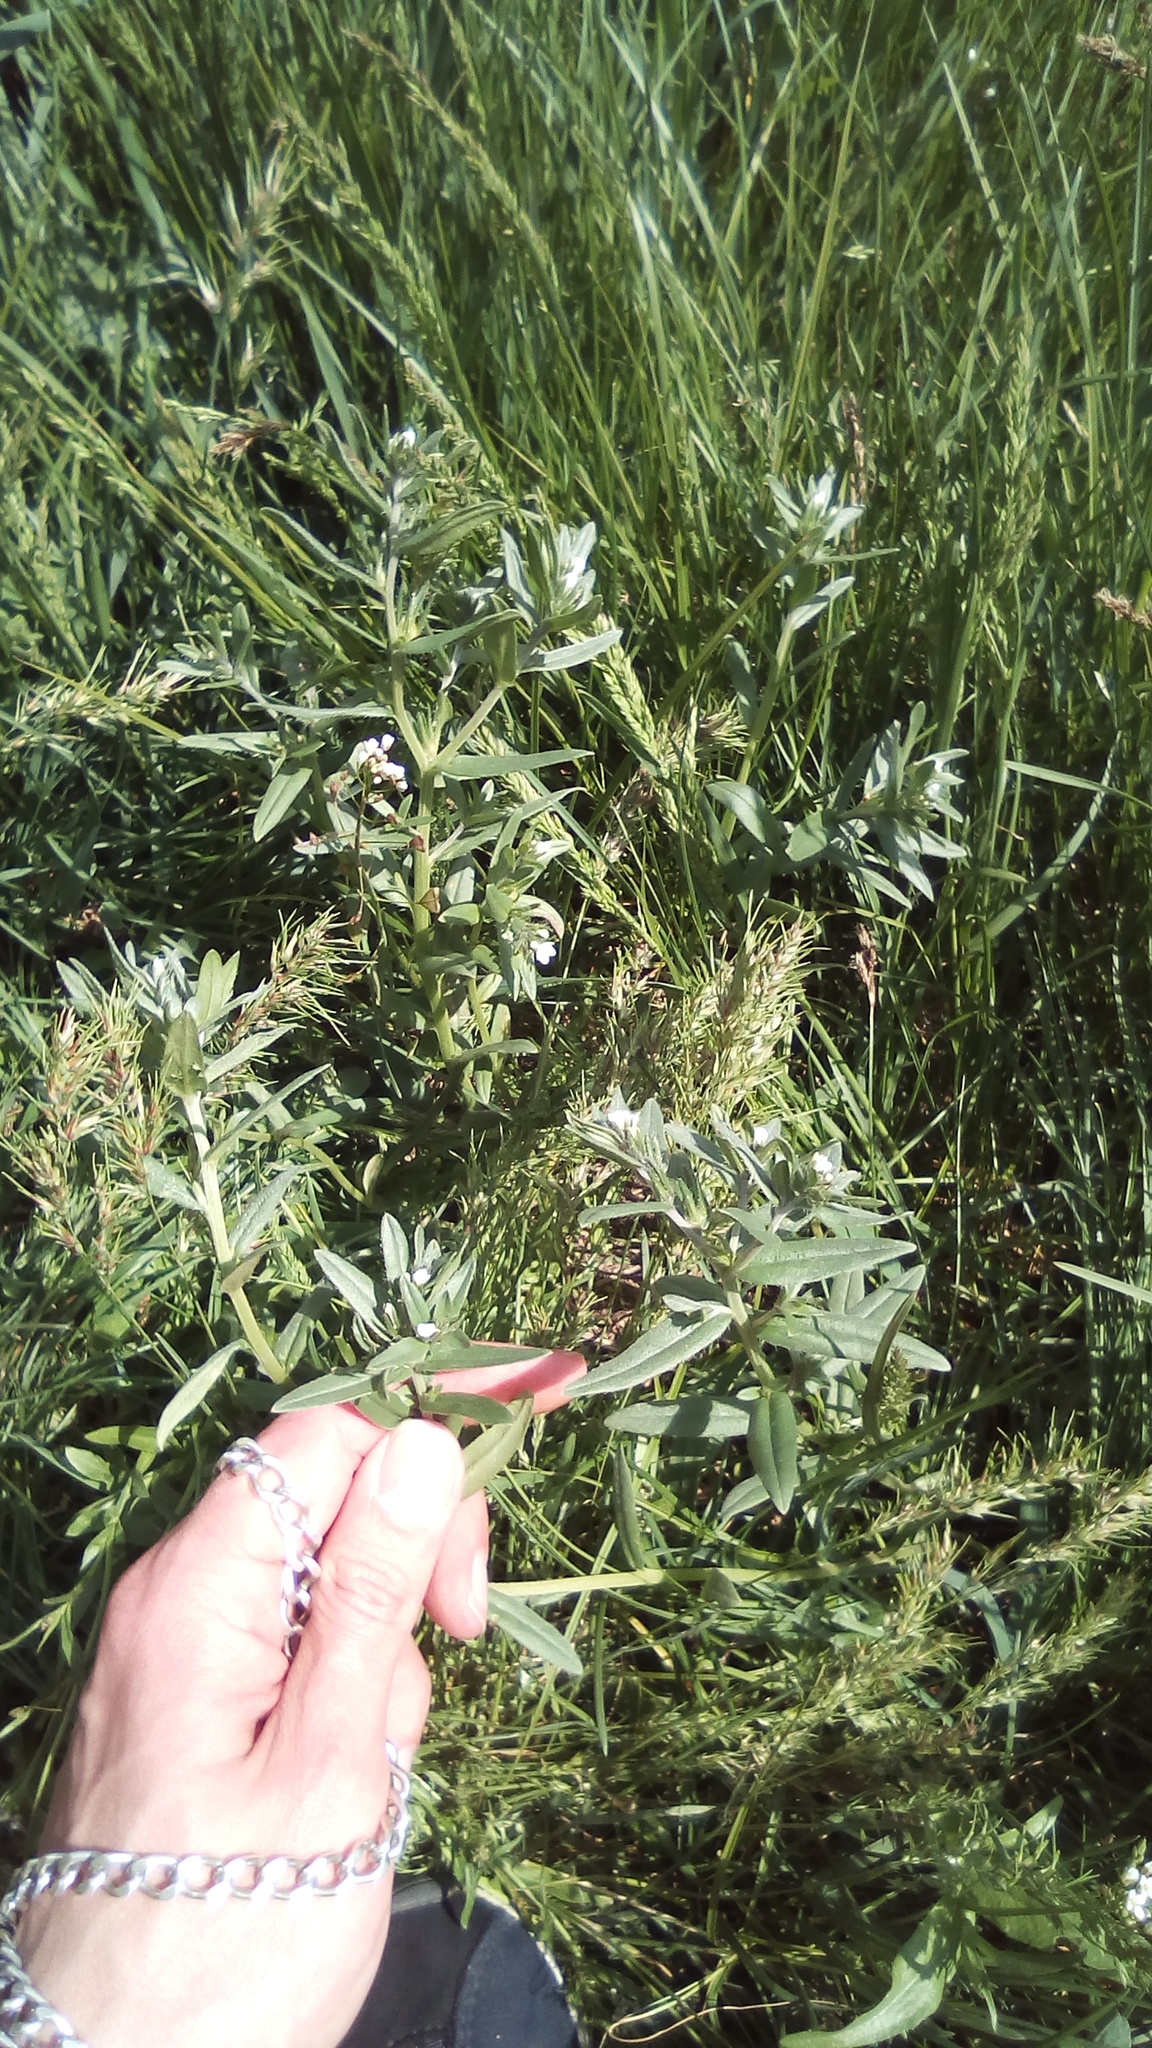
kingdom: Plantae
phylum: Tracheophyta
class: Magnoliopsida
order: Boraginales
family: Boraginaceae
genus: Lithospermum
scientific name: Lithospermum officinale
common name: Common gromwell
